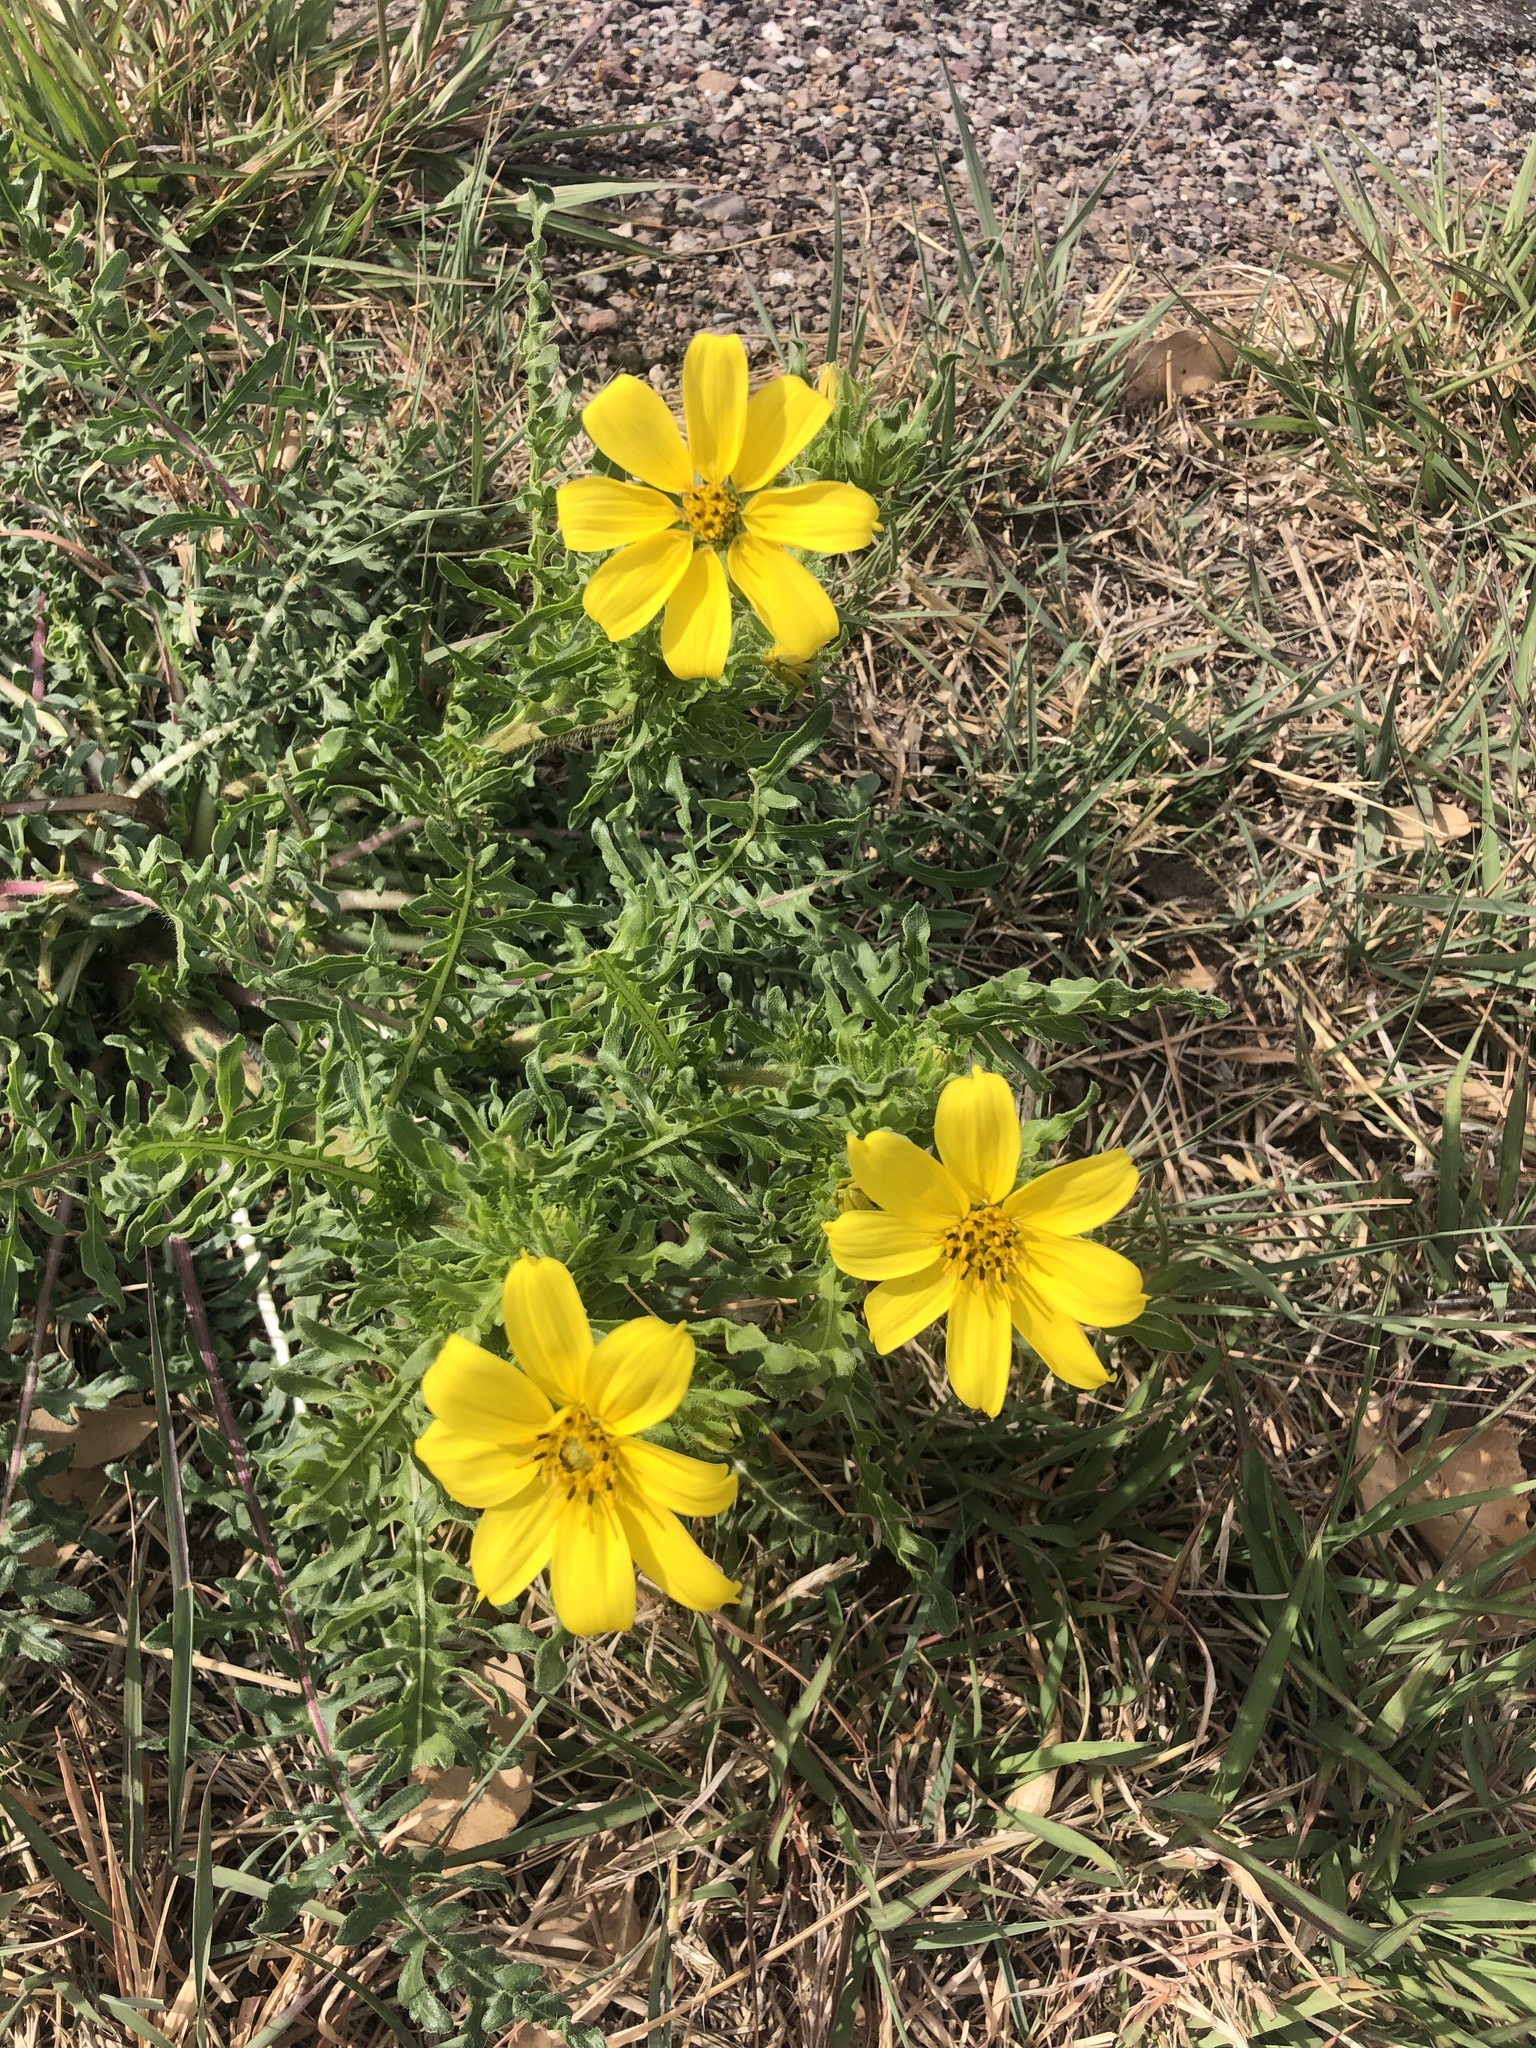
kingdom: Plantae
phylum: Tracheophyta
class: Magnoliopsida
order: Asterales
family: Asteraceae
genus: Engelmannia
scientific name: Engelmannia peristenia
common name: Engelmann's daisy
